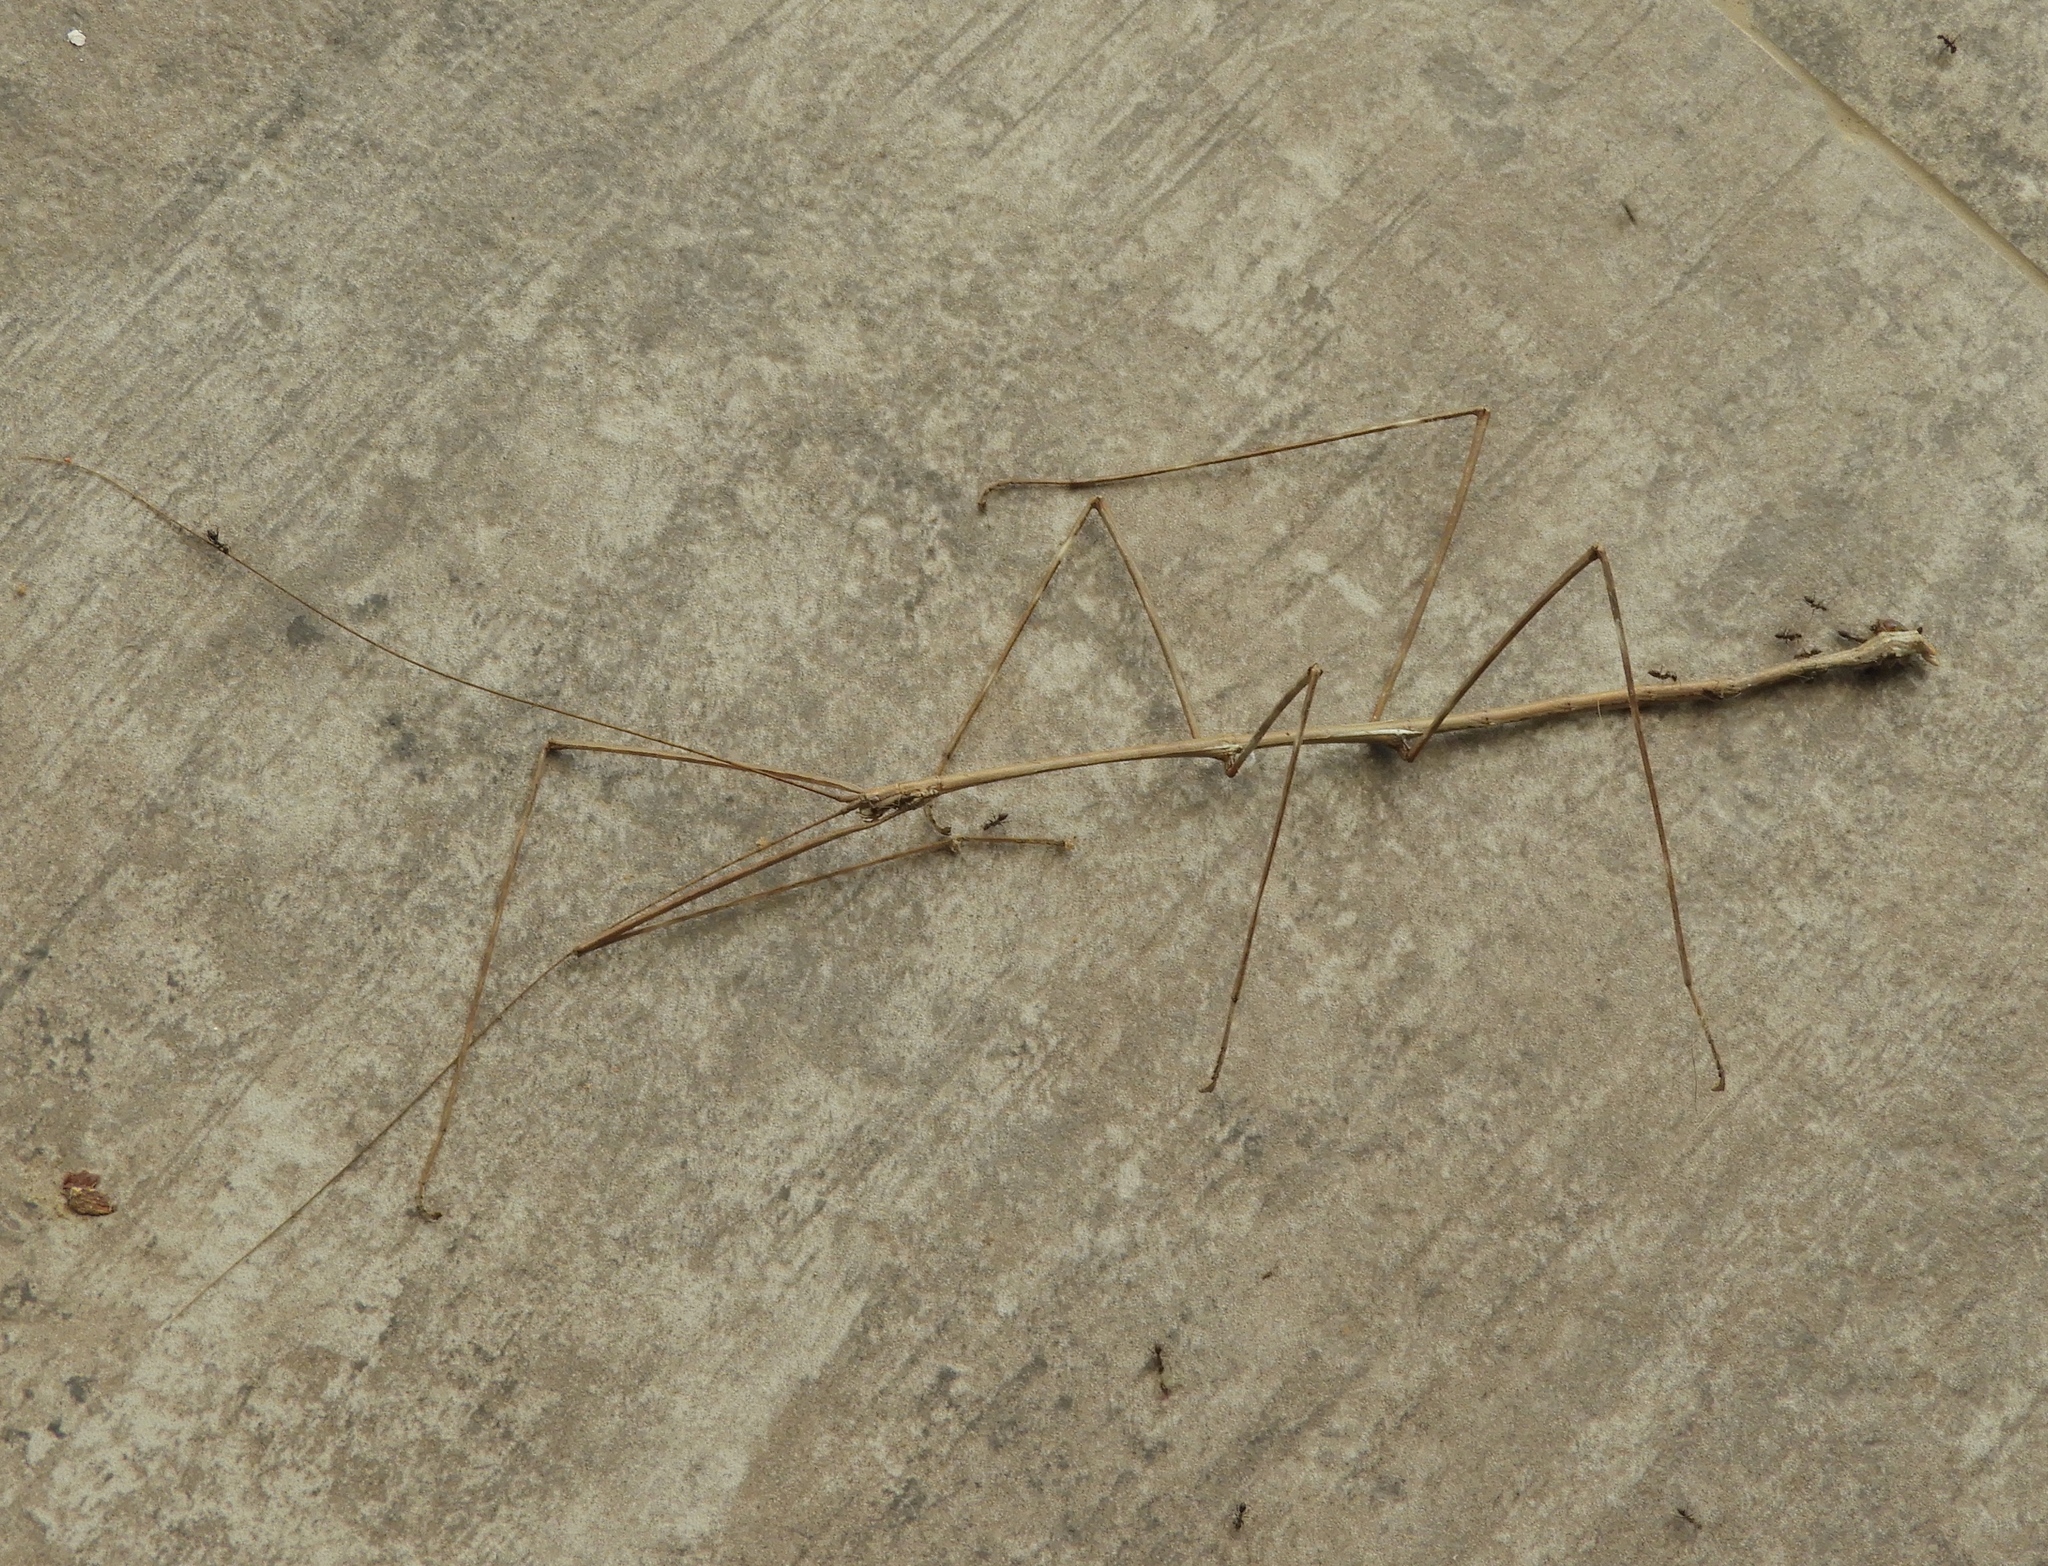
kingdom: Animalia
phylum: Arthropoda
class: Insecta
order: Phasmida
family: Diapheromeridae
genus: Phanocles
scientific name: Phanocles
